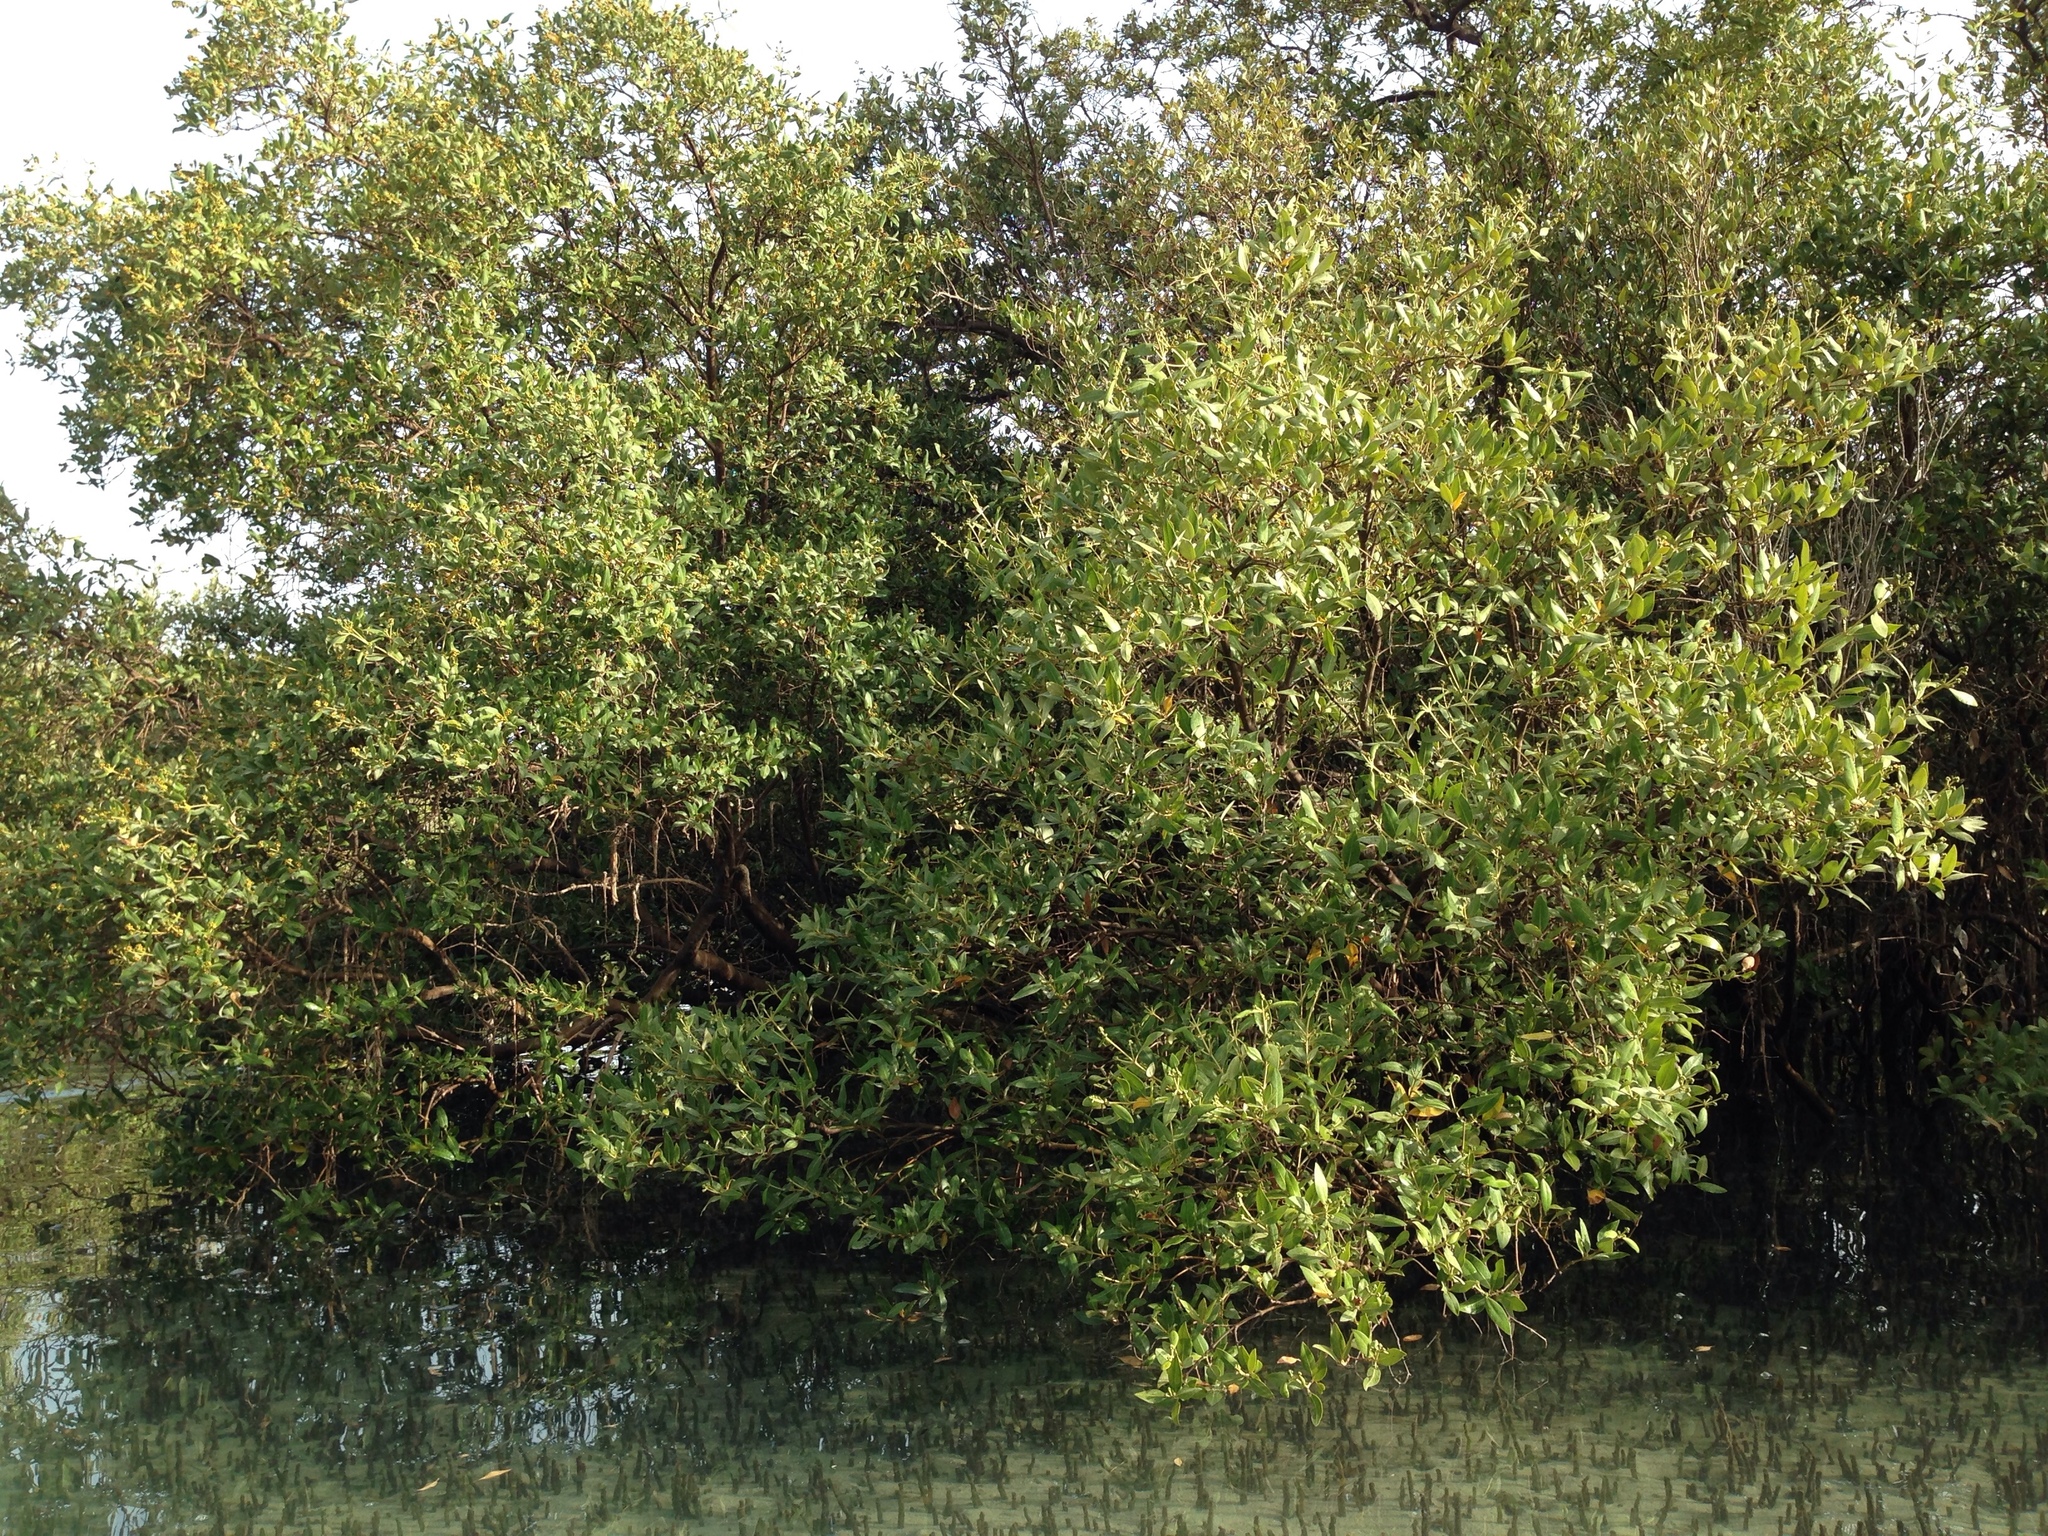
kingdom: Plantae
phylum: Tracheophyta
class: Magnoliopsida
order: Lamiales
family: Acanthaceae
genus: Avicennia
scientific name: Avicennia marina
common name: Gray mangrove
